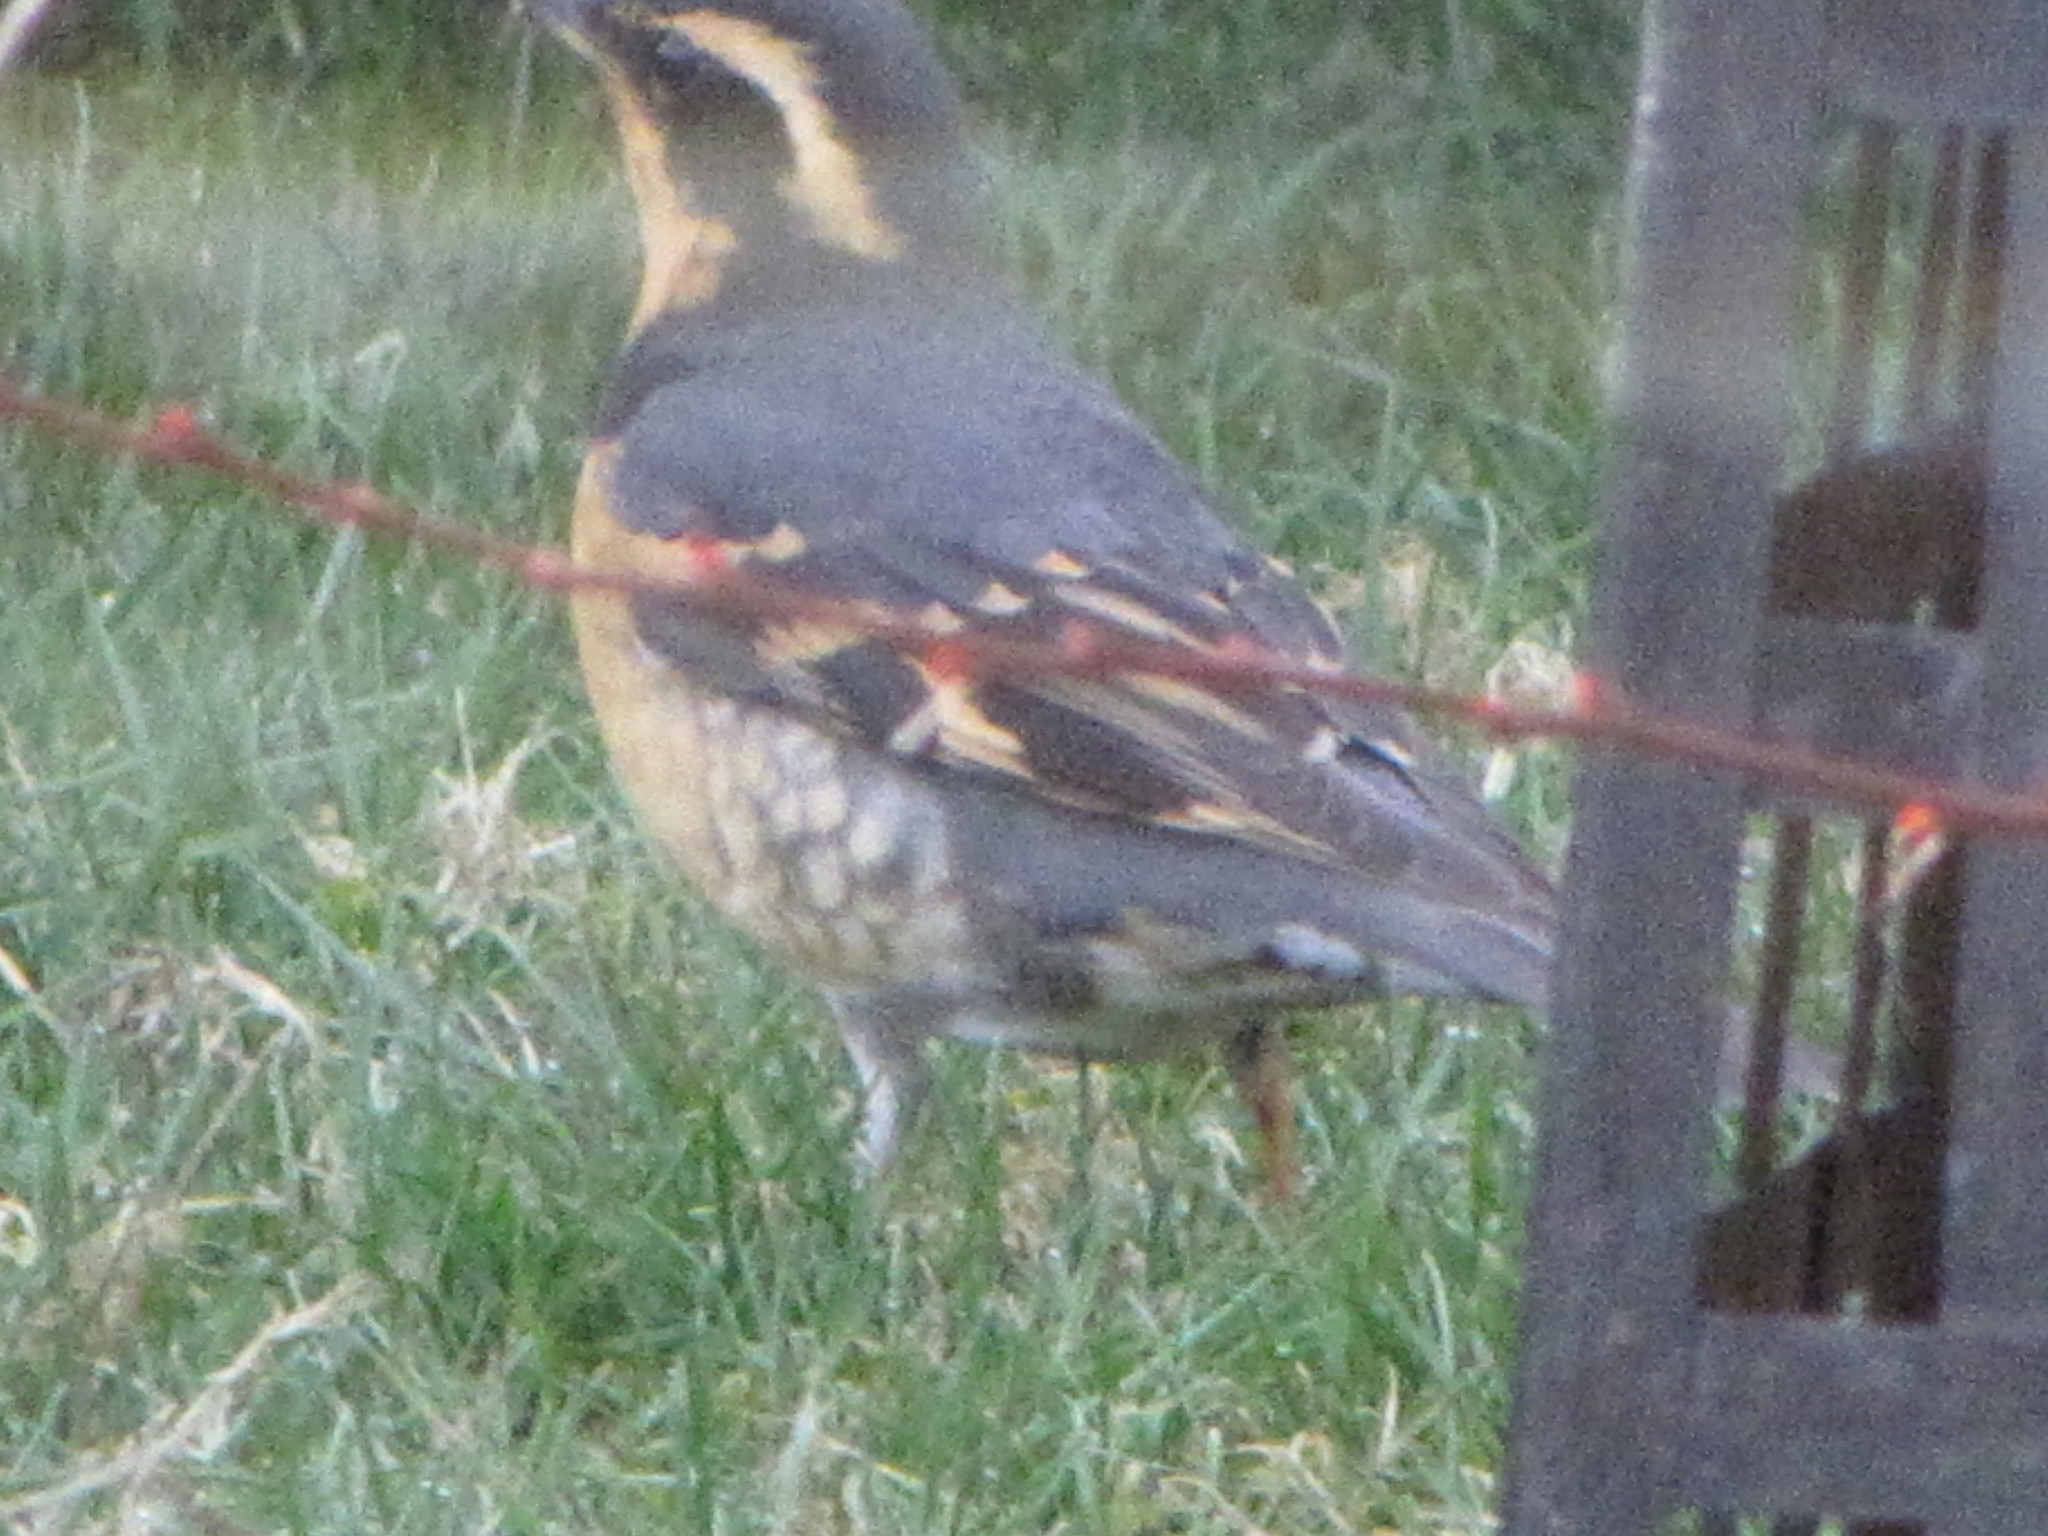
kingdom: Animalia
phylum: Chordata
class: Aves
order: Passeriformes
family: Turdidae
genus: Ixoreus
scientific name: Ixoreus naevius
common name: Varied thrush
